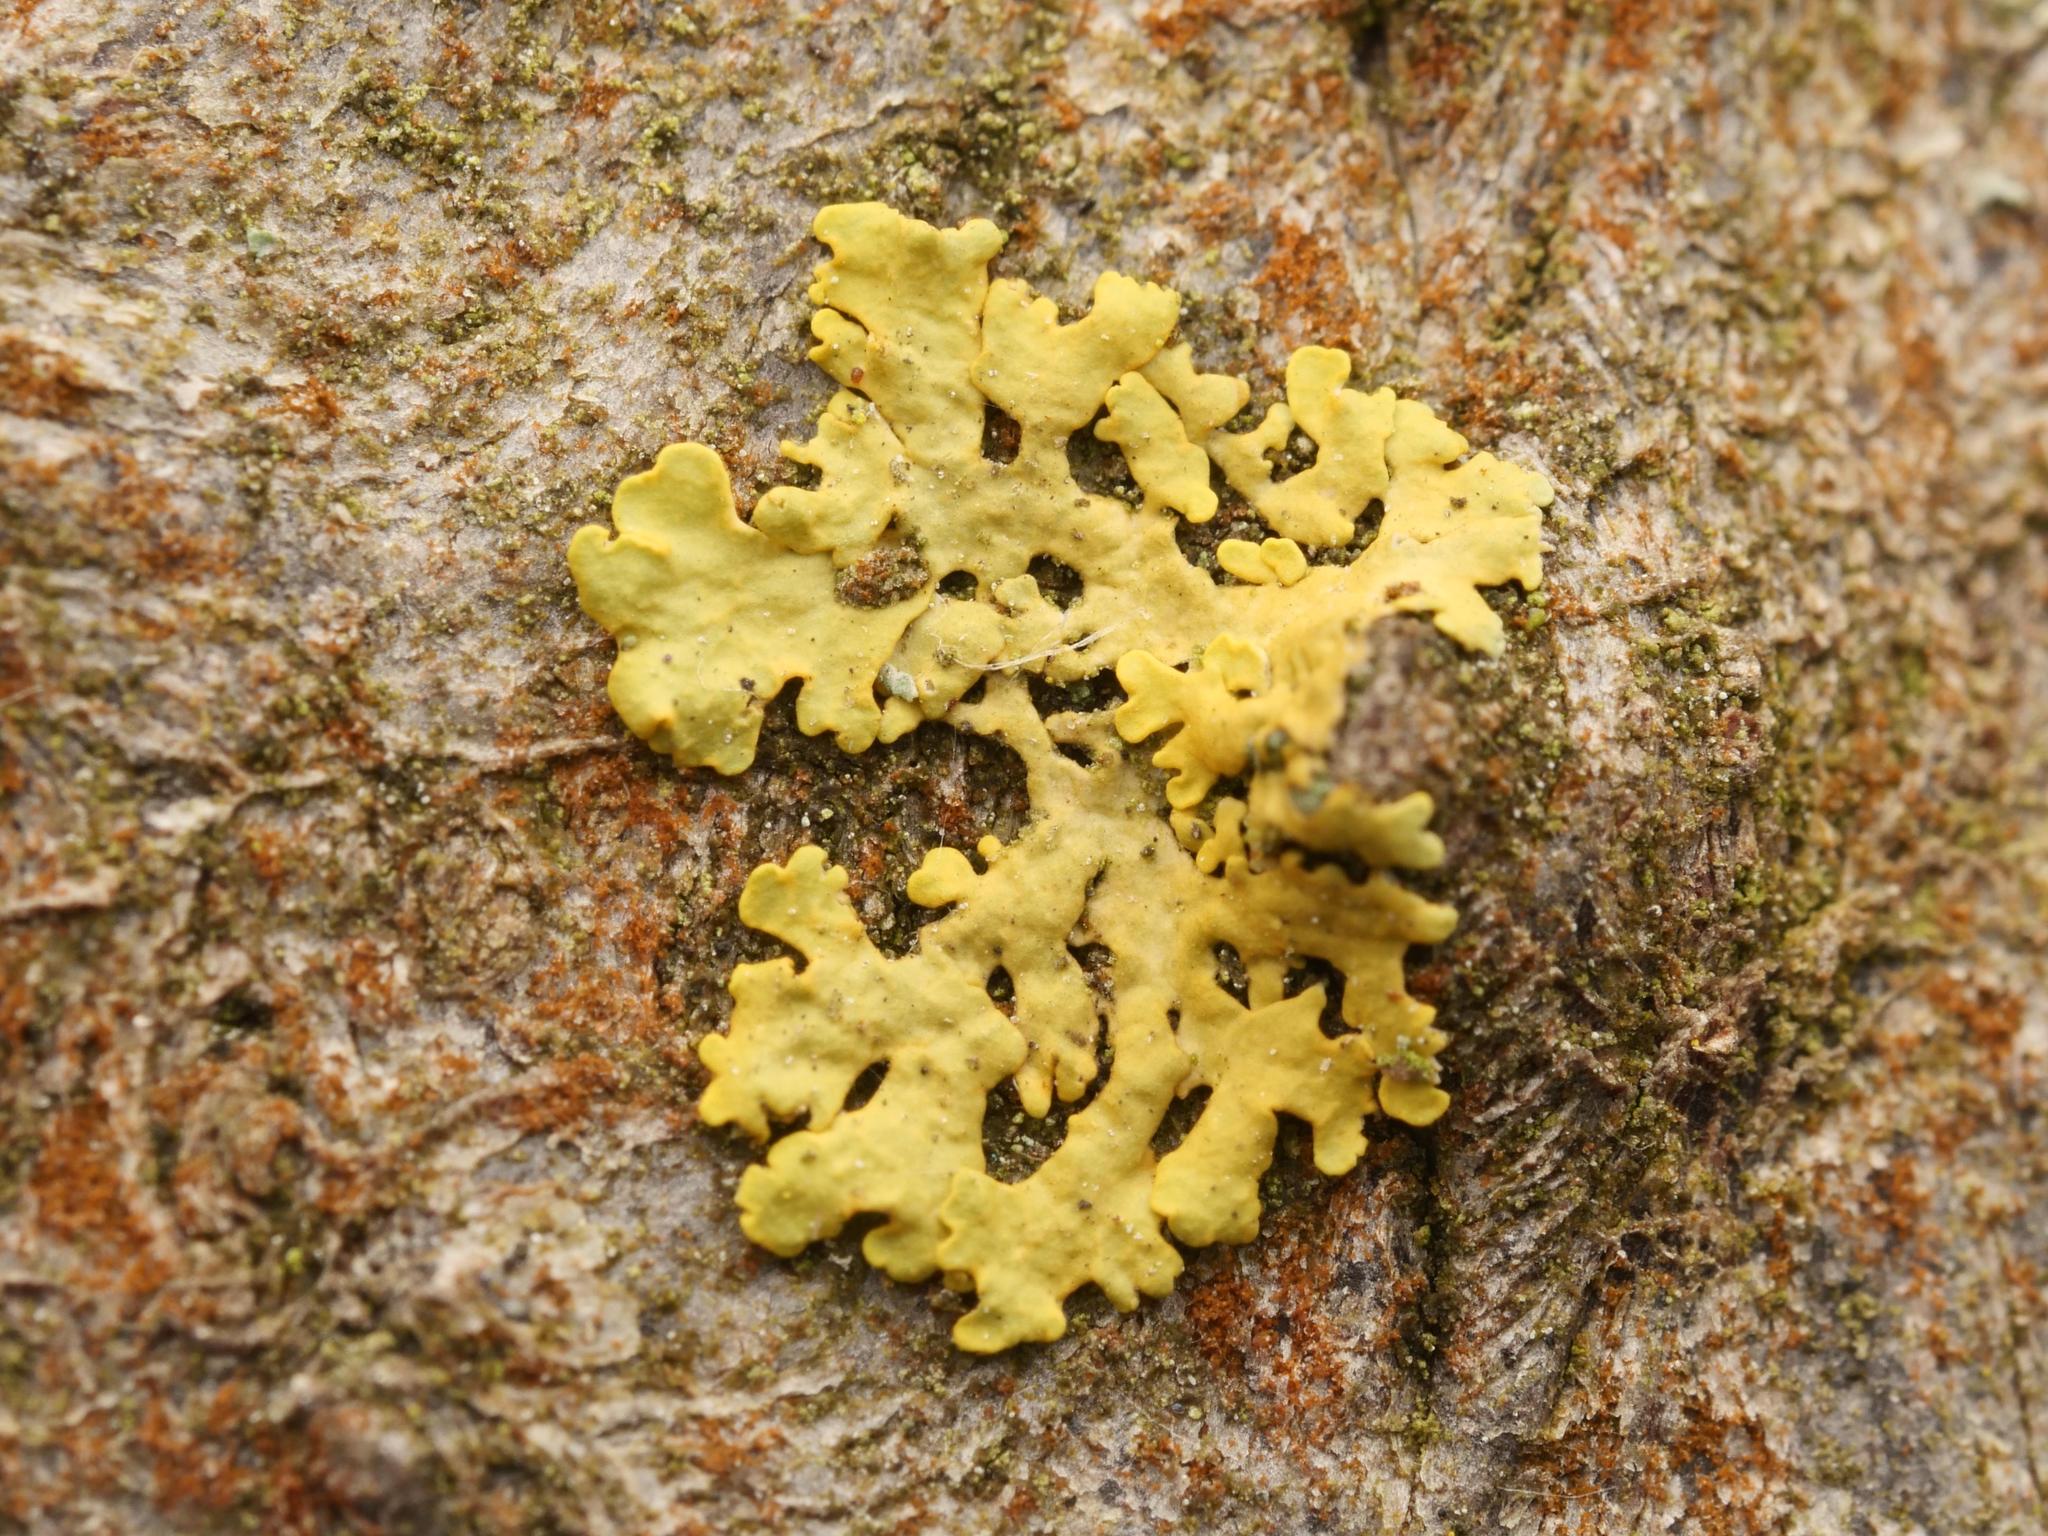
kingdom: Fungi
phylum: Ascomycota
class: Lecanoromycetes
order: Teloschistales
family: Teloschistaceae
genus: Xanthoria
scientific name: Xanthoria parietina
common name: Common orange lichen
